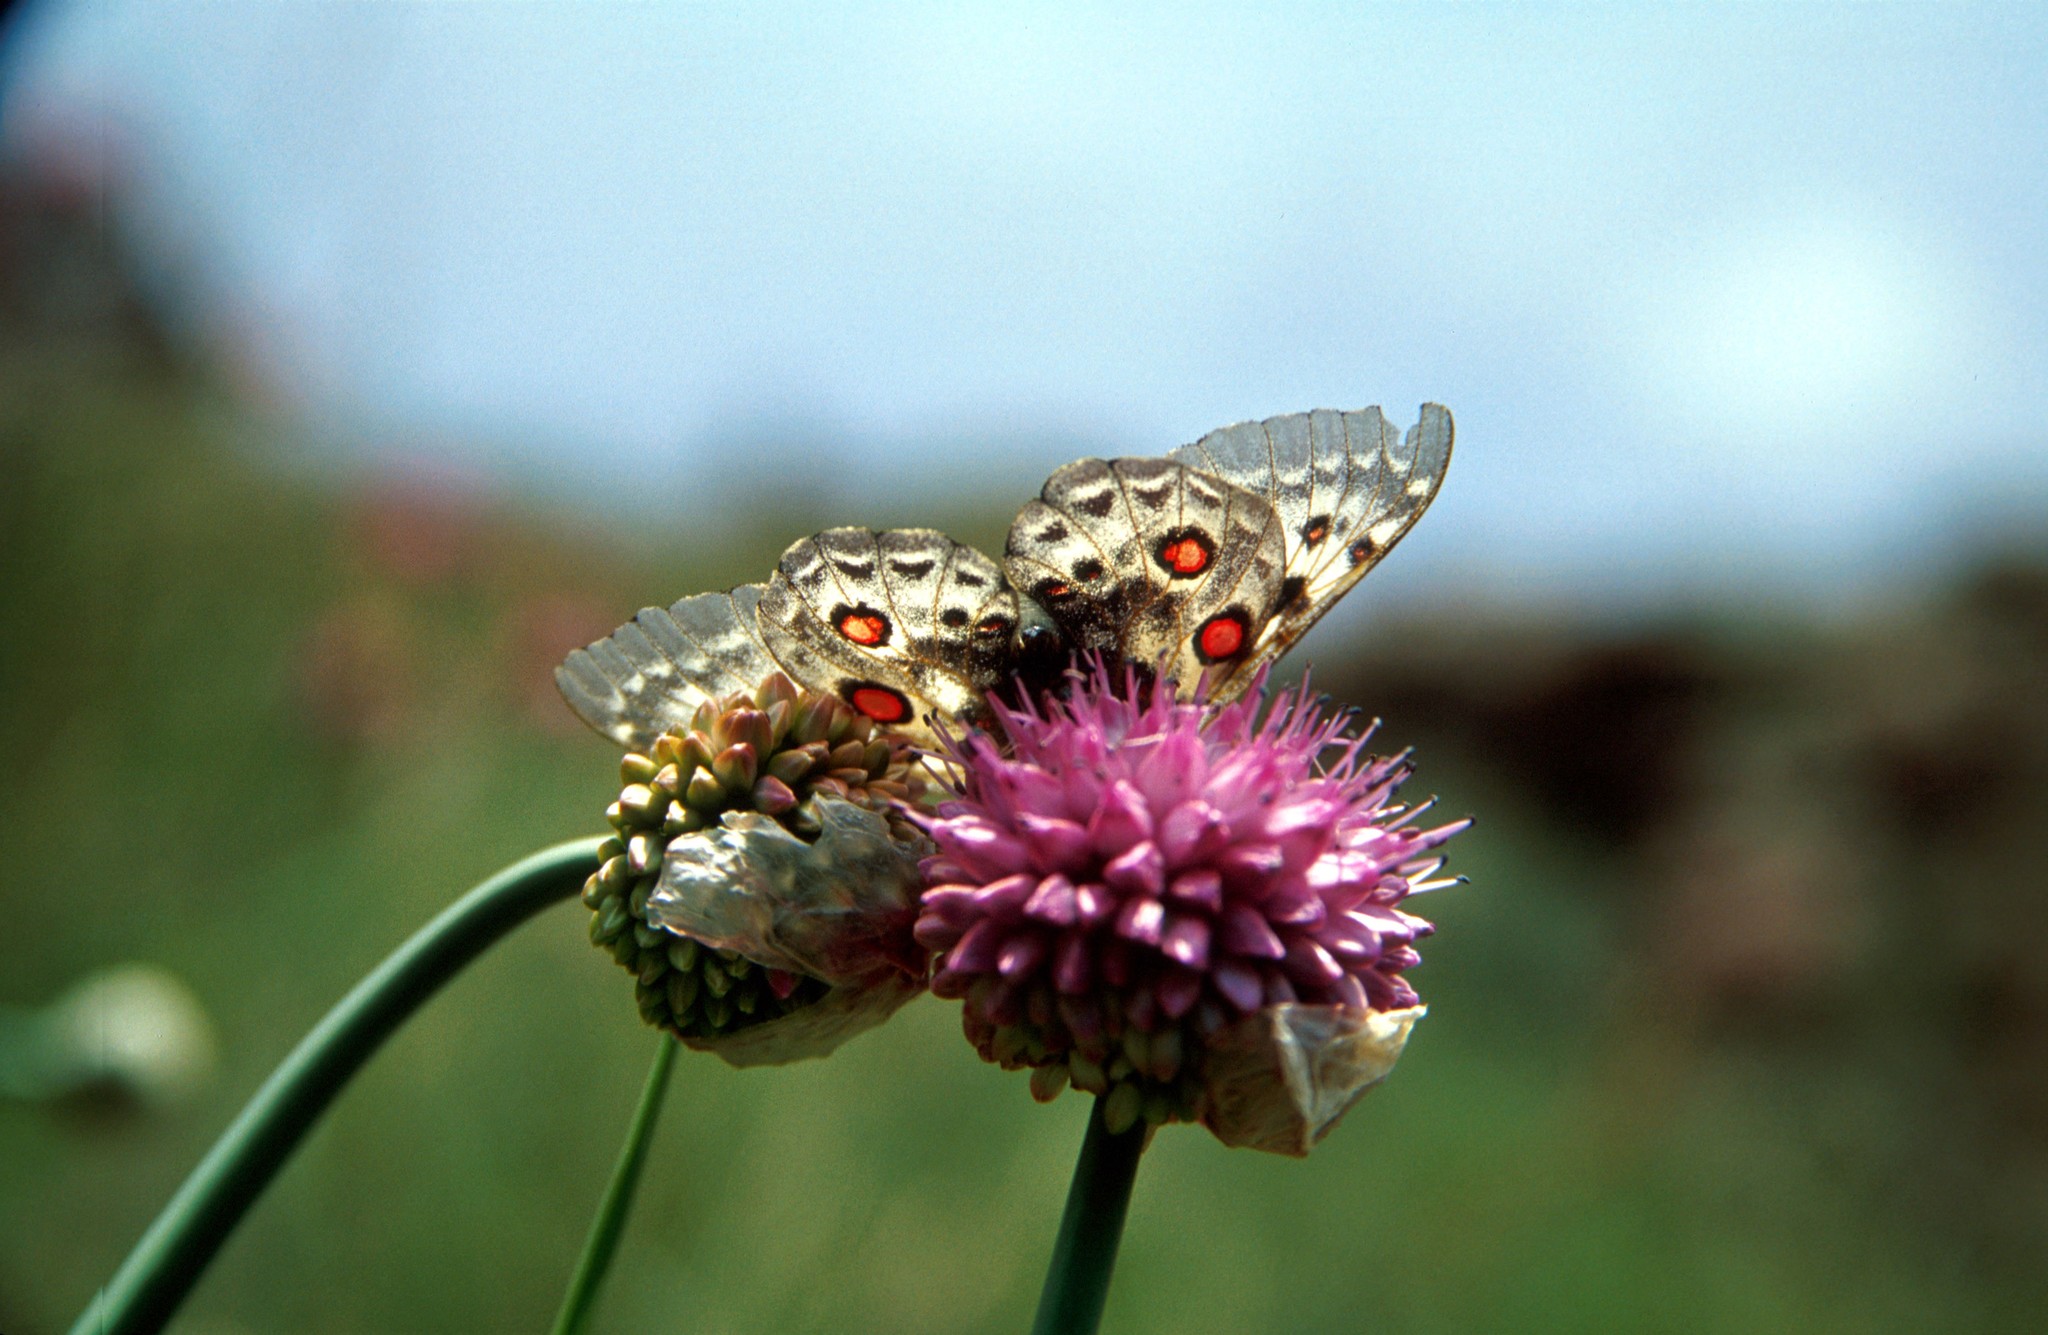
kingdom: Animalia
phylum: Arthropoda
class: Insecta
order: Lepidoptera
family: Papilionidae
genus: Parnassius
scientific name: Parnassius tianschanicus
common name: Large keeled apollo
